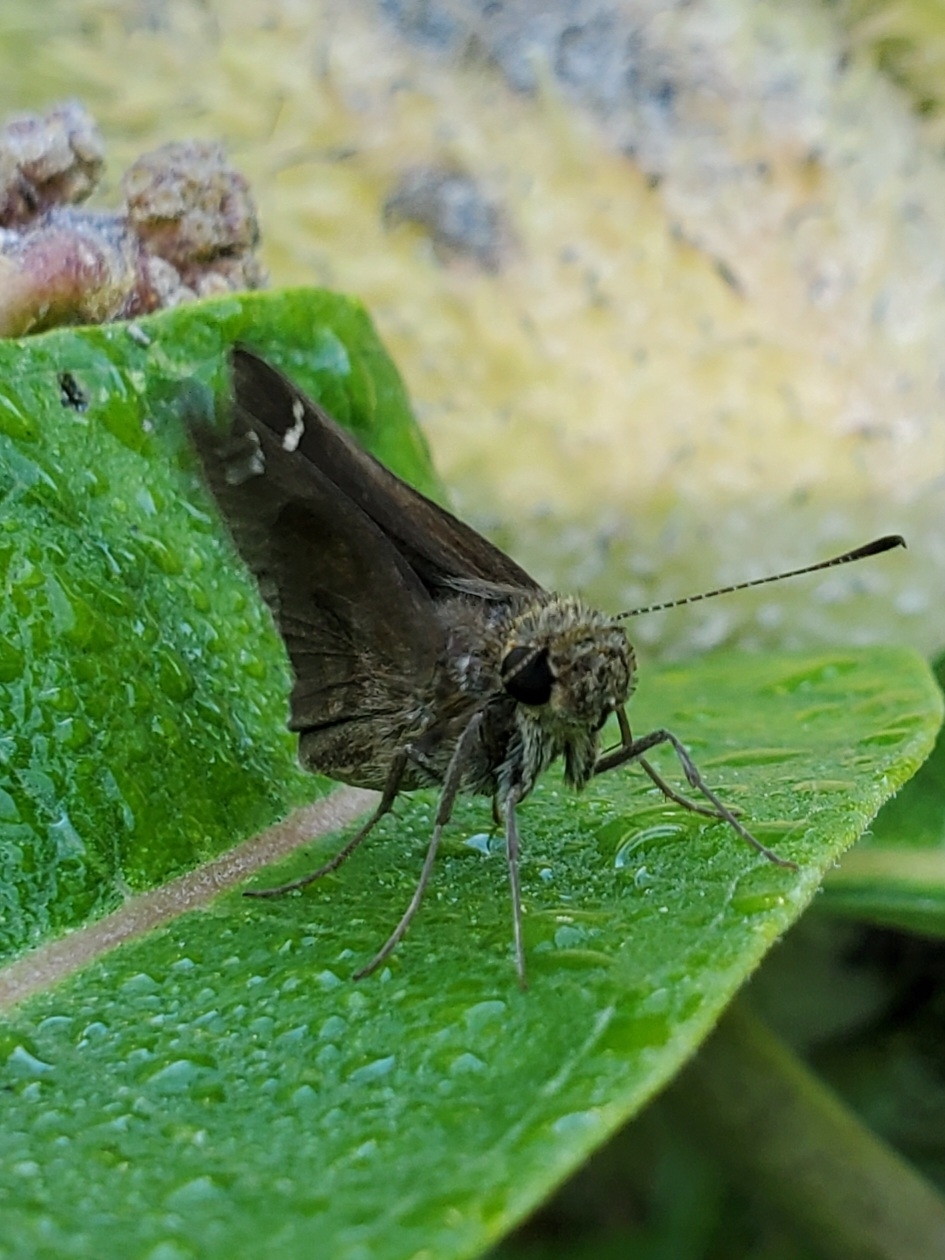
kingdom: Animalia
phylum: Arthropoda
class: Insecta
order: Lepidoptera
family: Hesperiidae
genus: Lerema
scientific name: Lerema accius
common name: Clouded skipper
